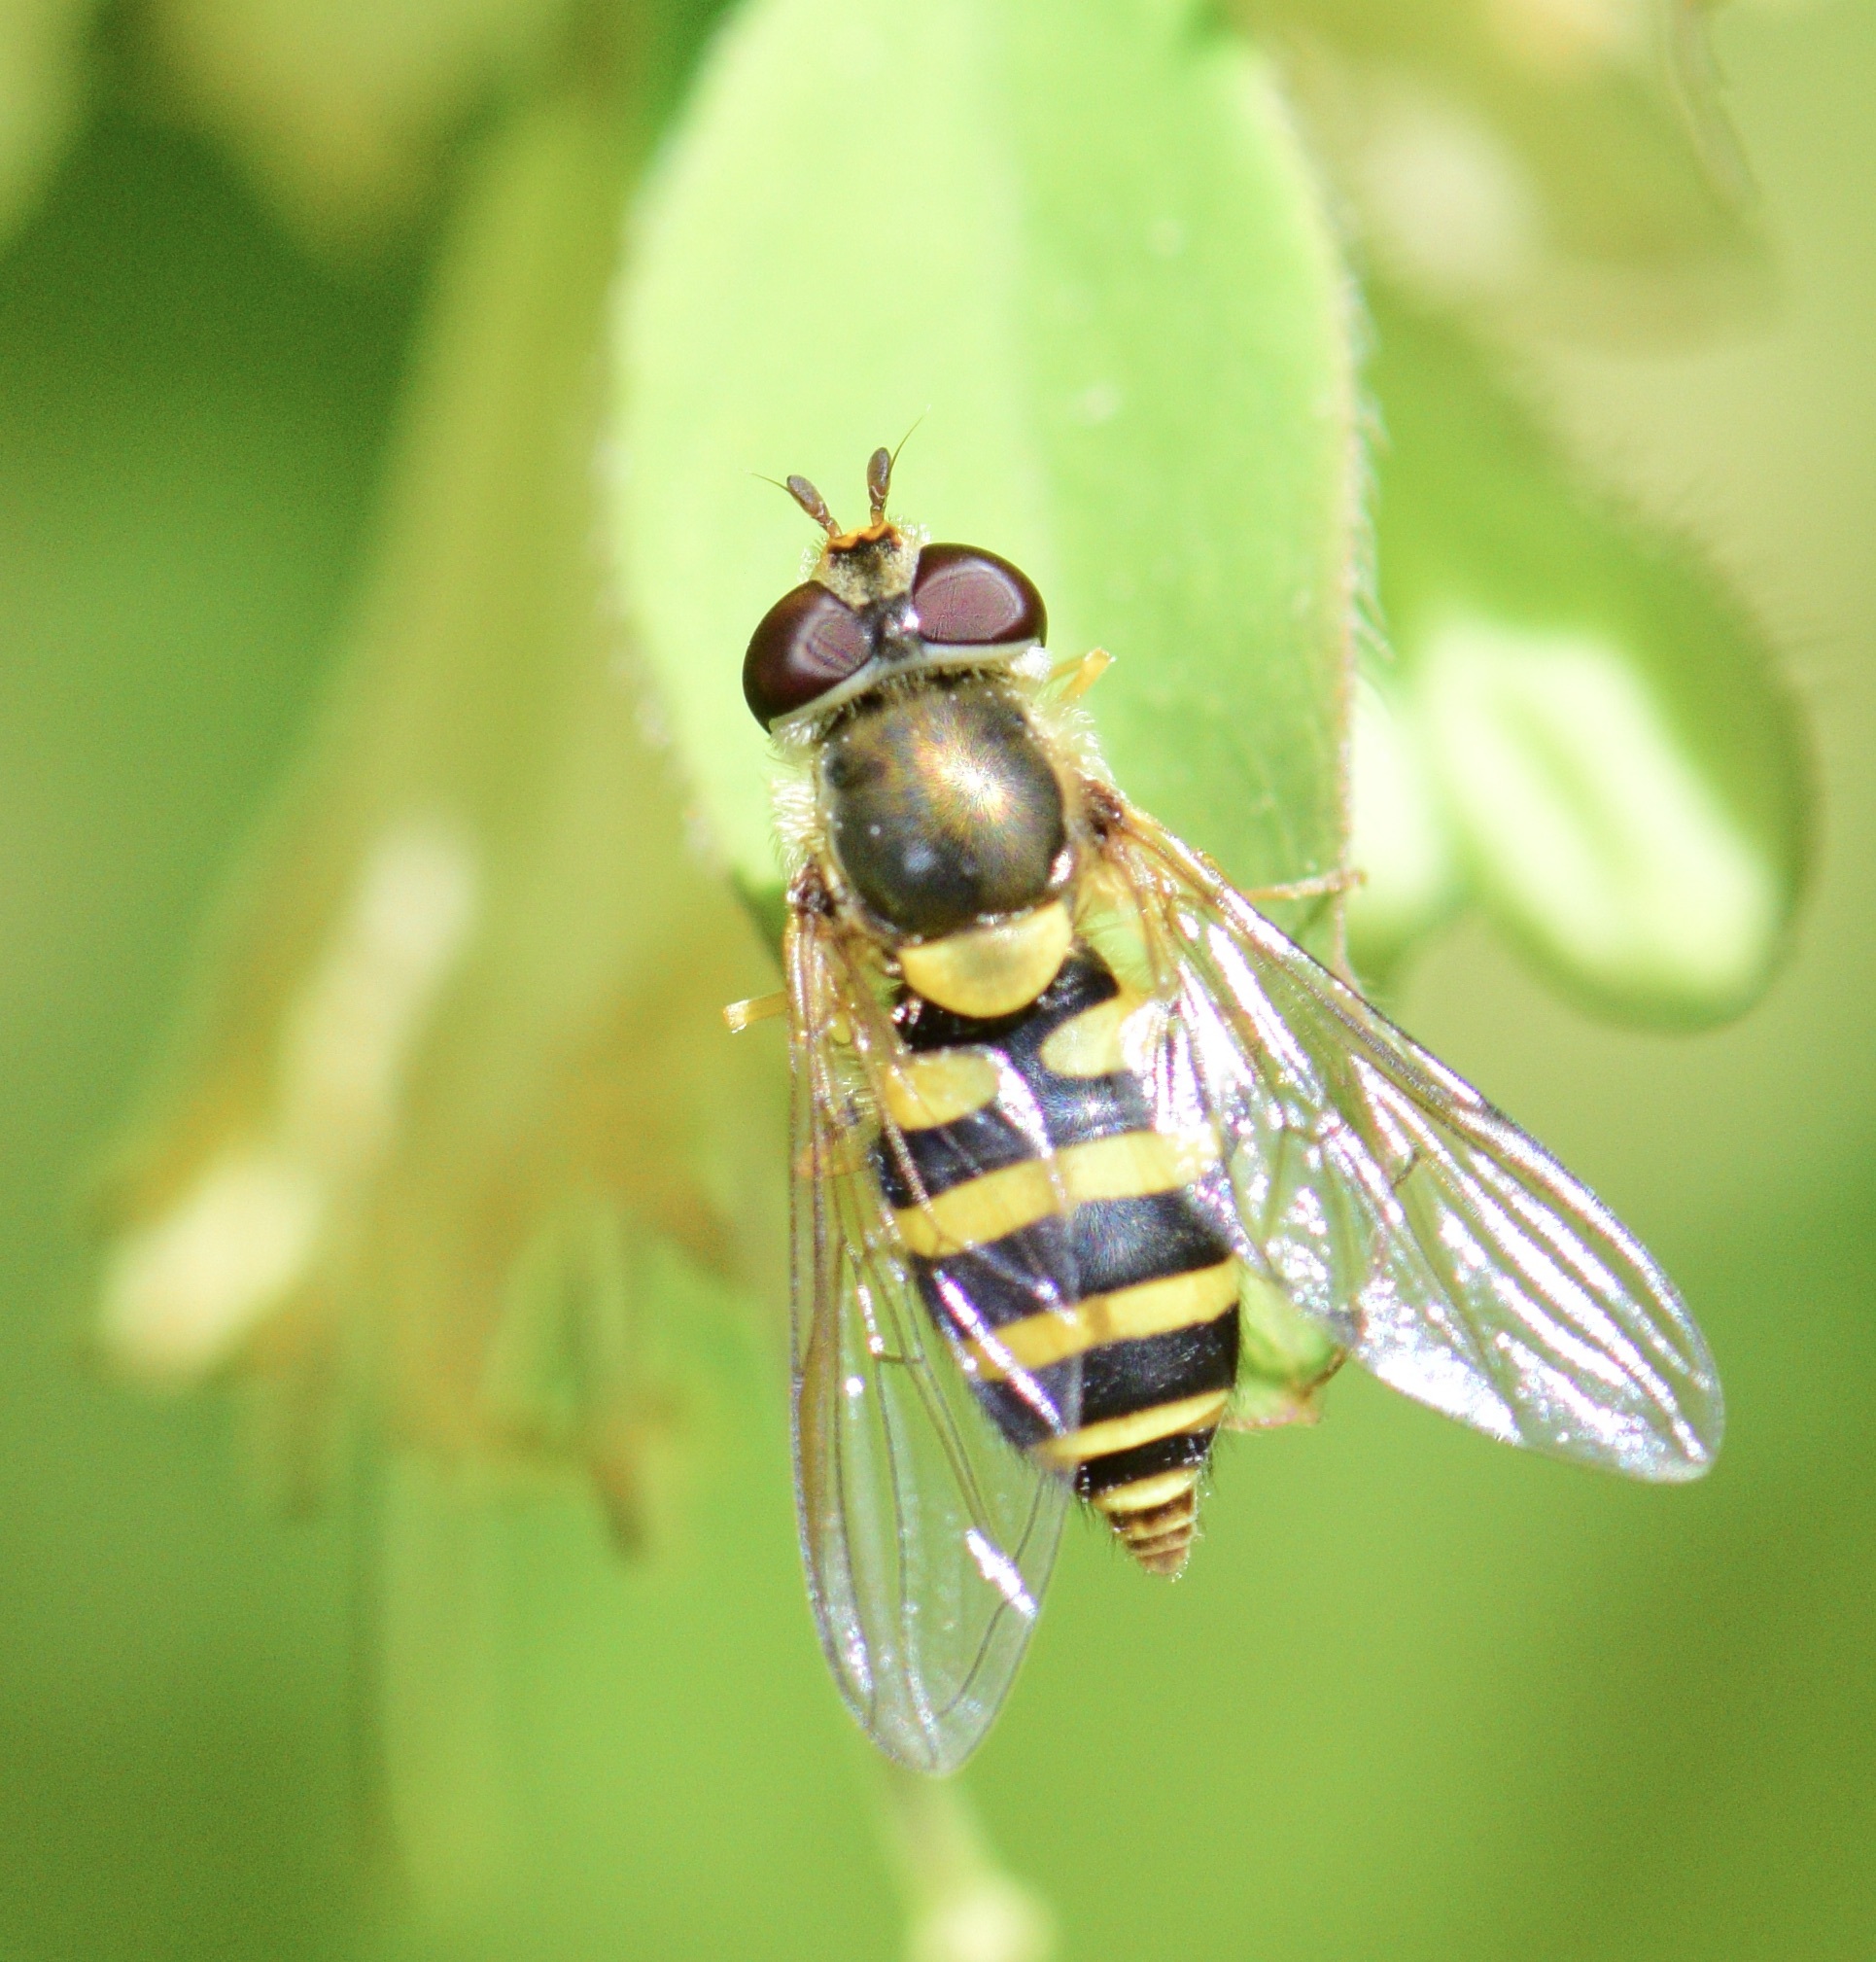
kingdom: Animalia
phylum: Arthropoda
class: Insecta
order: Diptera
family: Syrphidae
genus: Syrphus
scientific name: Syrphus
